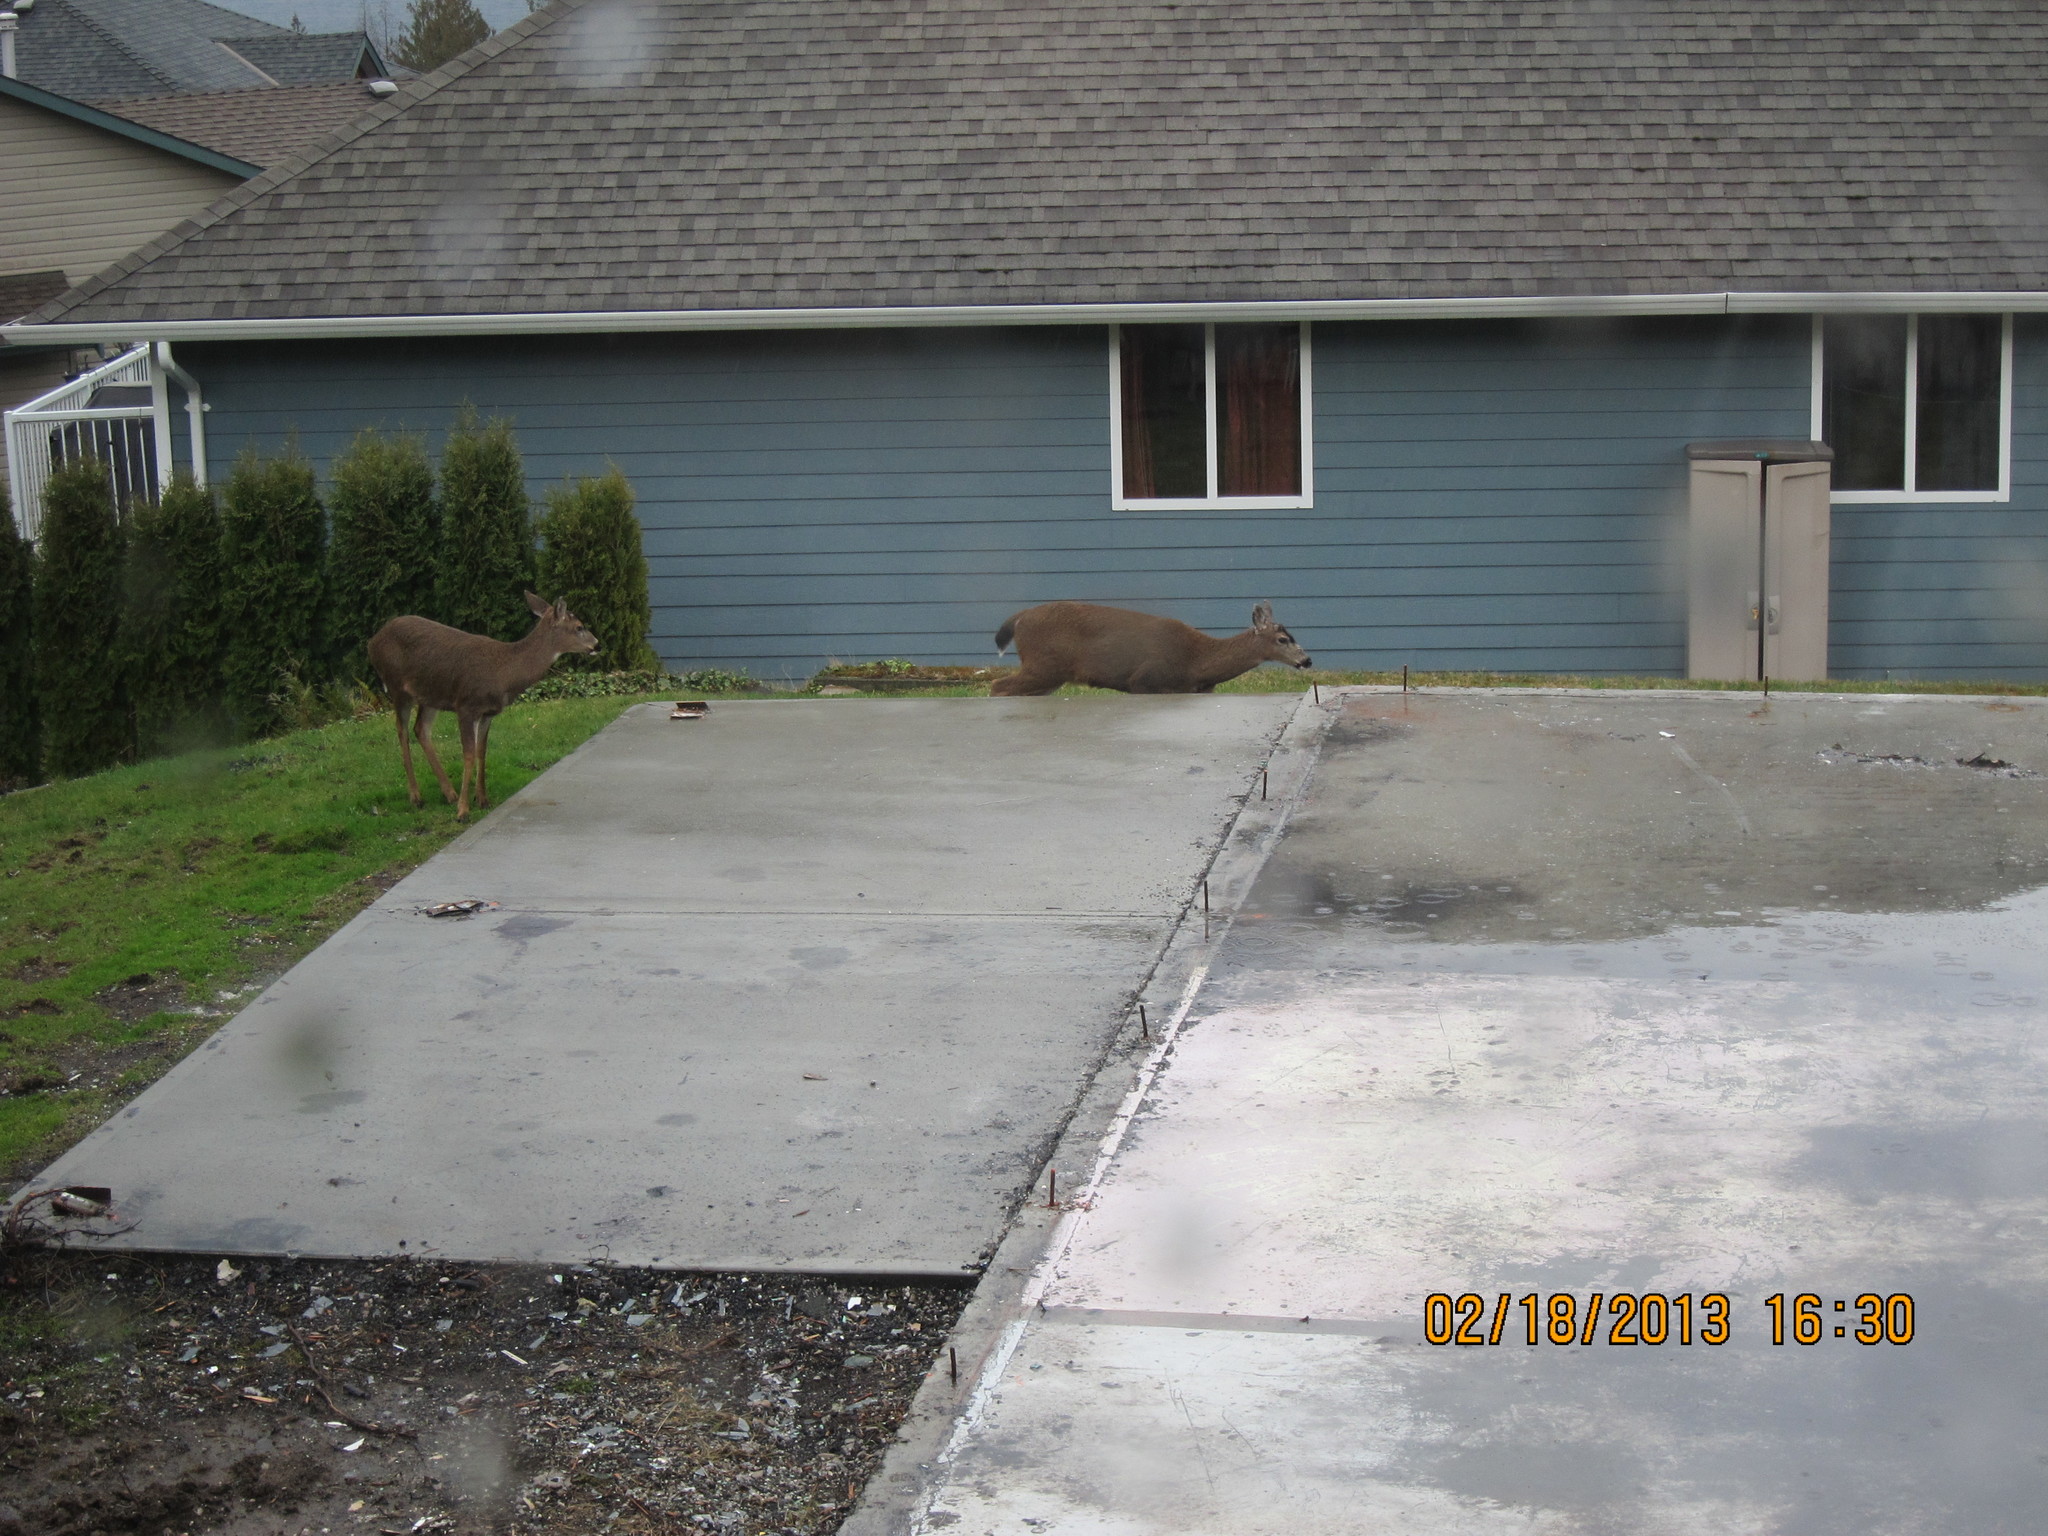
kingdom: Animalia
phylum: Chordata
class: Mammalia
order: Artiodactyla
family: Cervidae
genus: Odocoileus
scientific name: Odocoileus hemionus
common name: Mule deer
